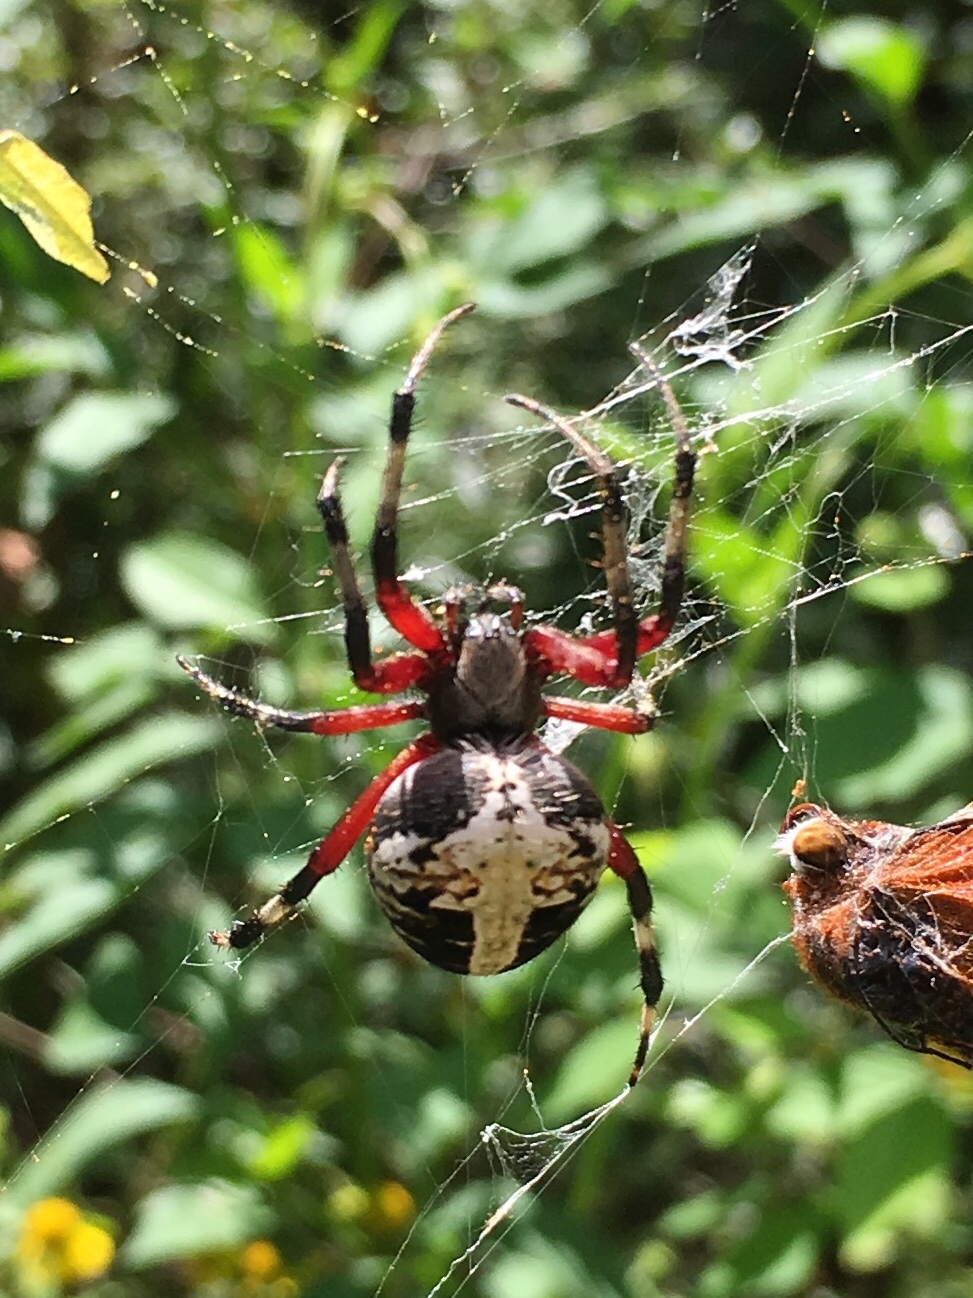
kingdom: Animalia
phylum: Arthropoda
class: Arachnida
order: Araneae
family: Araneidae
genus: Neoscona
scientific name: Neoscona domiciliorum
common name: Red-femured spotted orbweaver
